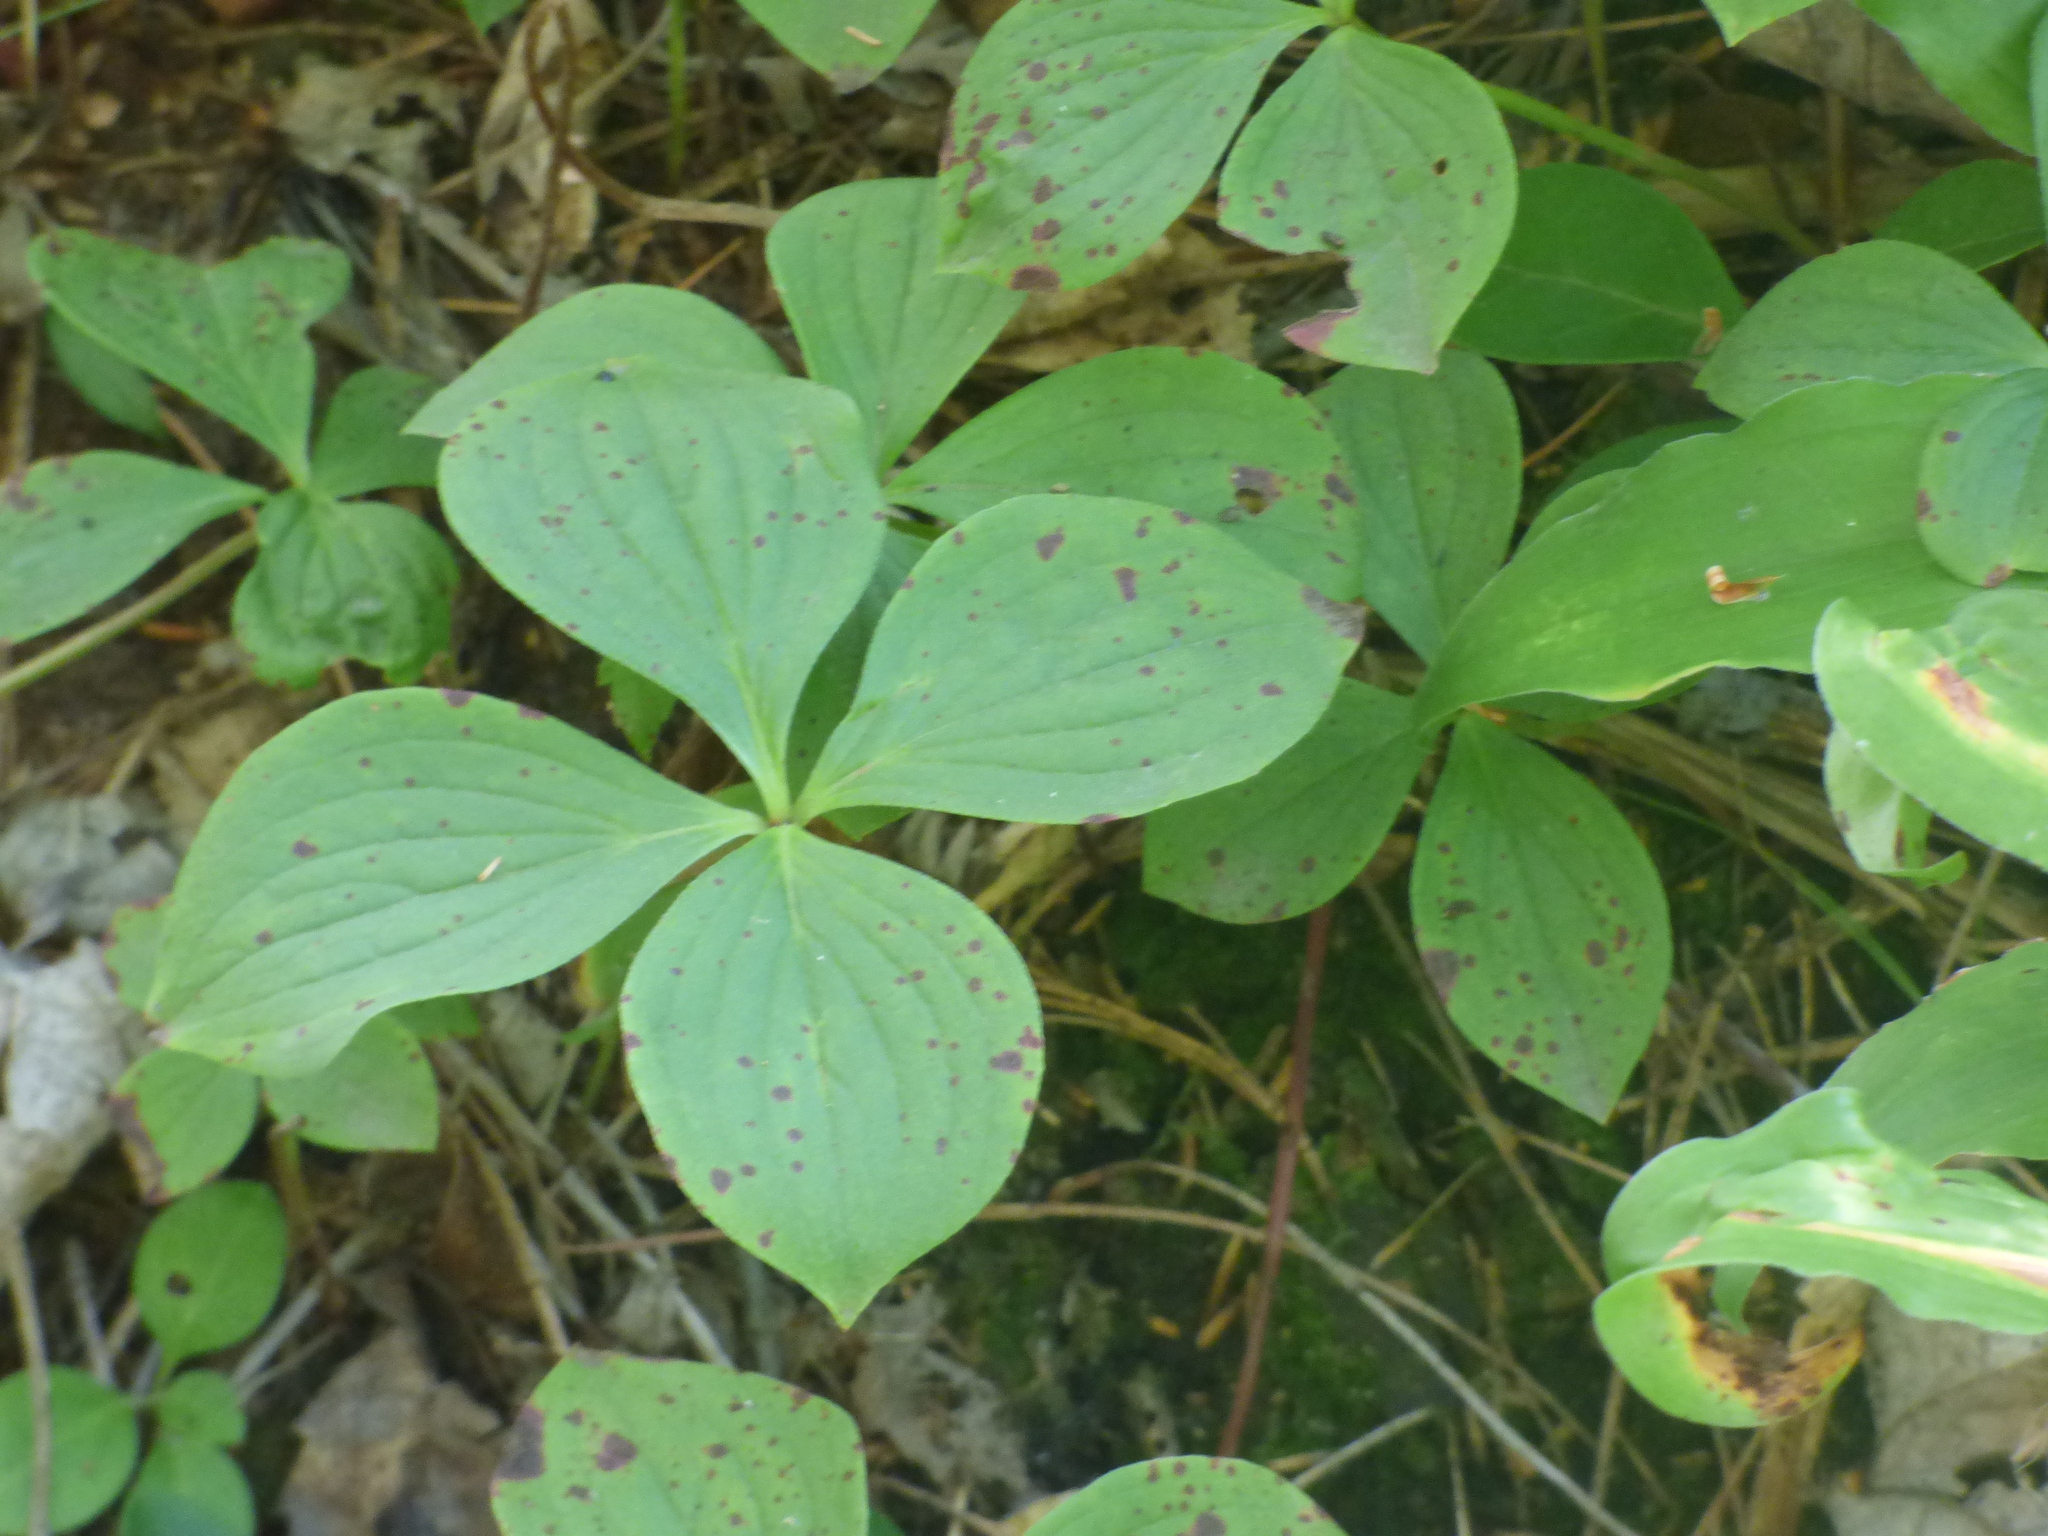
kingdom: Plantae
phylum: Tracheophyta
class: Magnoliopsida
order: Cornales
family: Cornaceae
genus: Cornus
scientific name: Cornus canadensis
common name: Creeping dogwood
